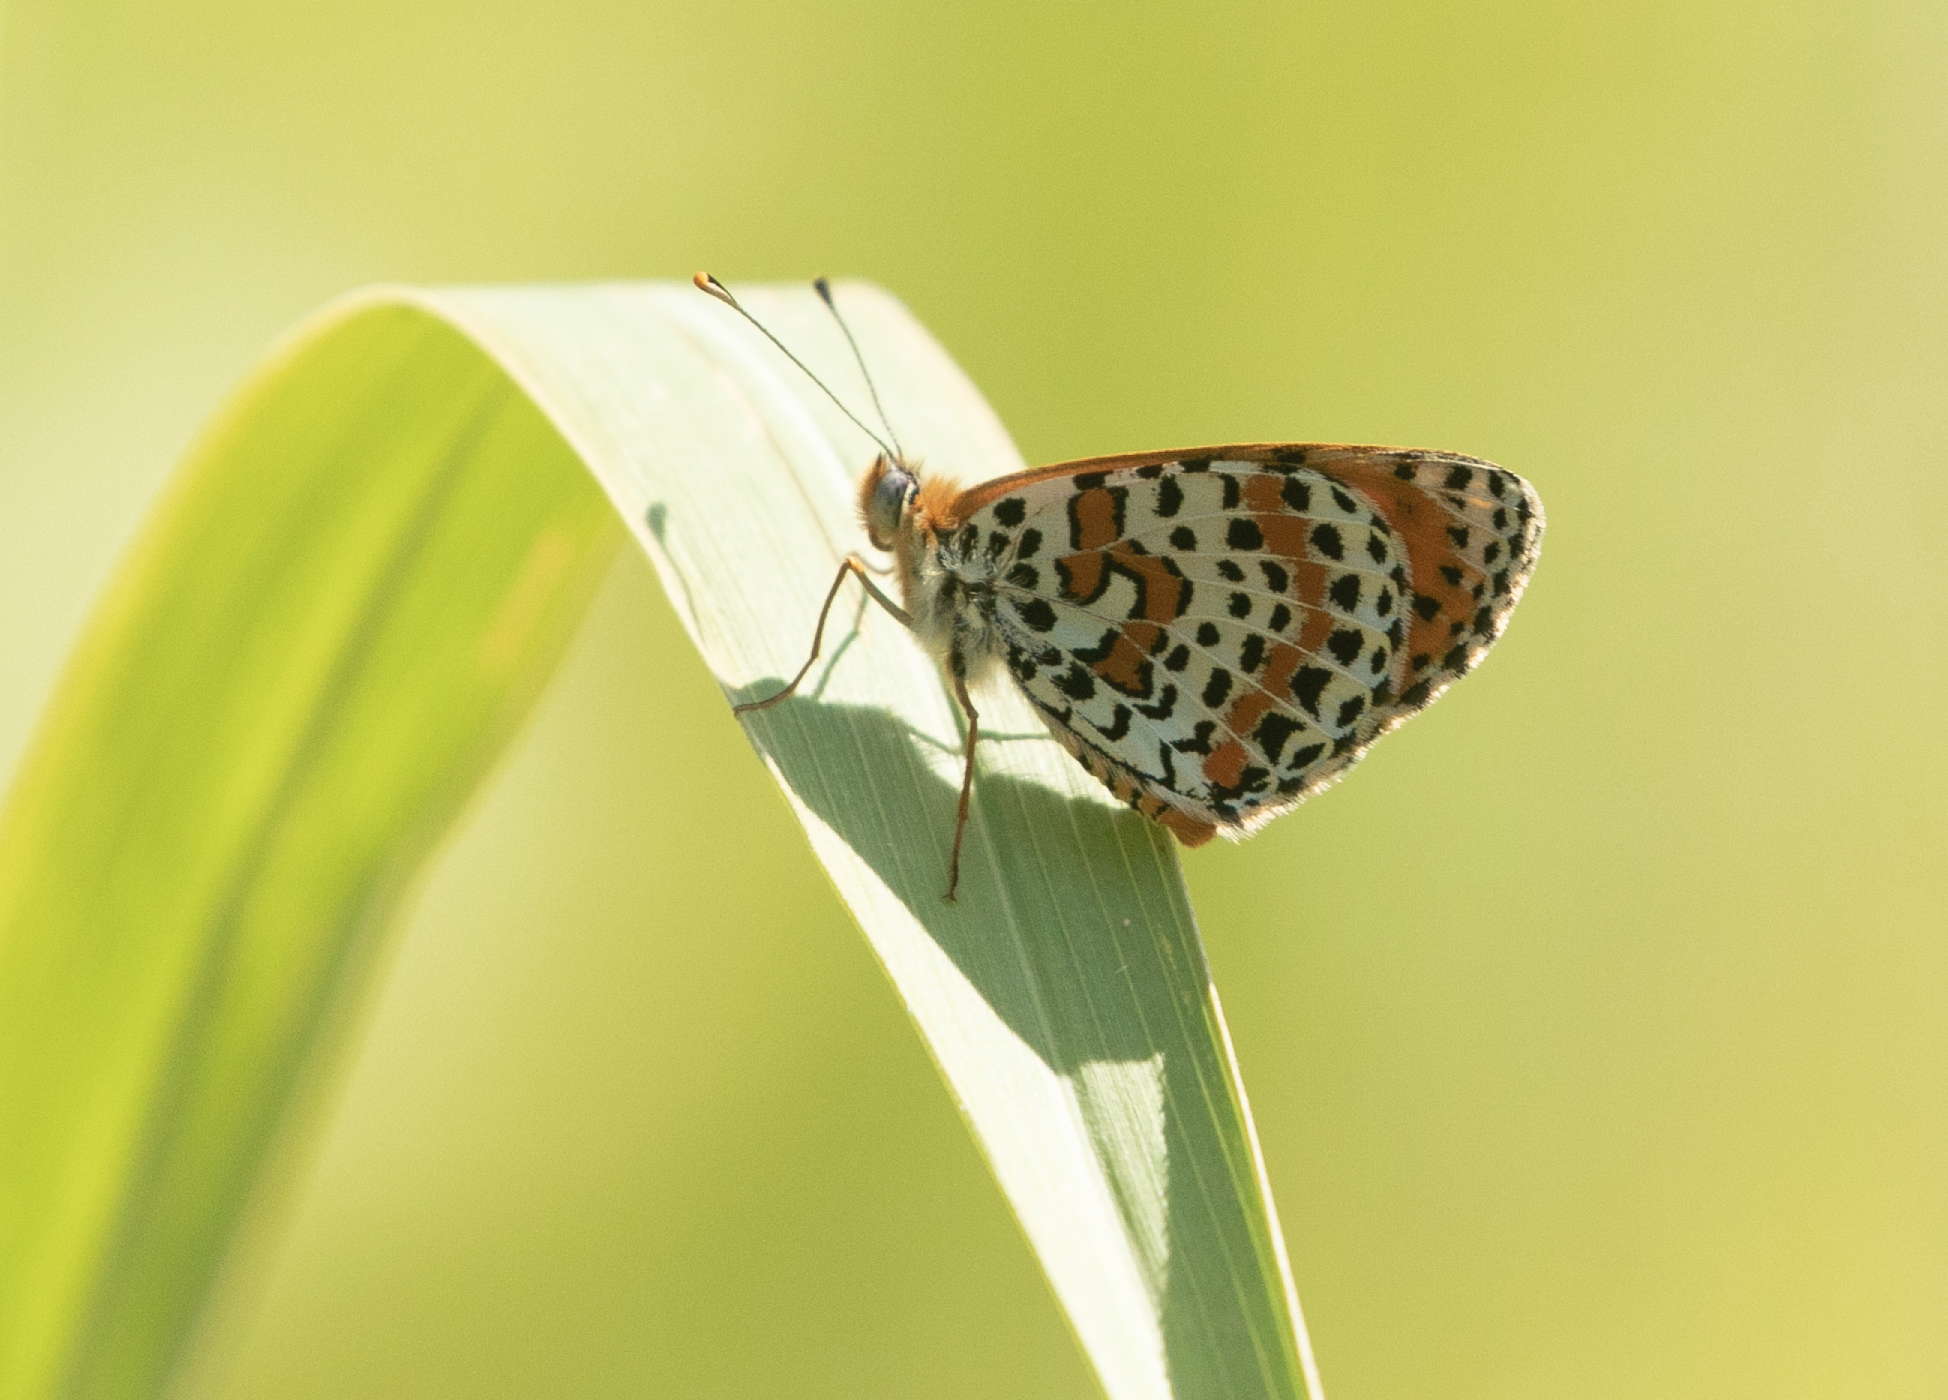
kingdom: Animalia
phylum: Arthropoda
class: Insecta
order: Lepidoptera
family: Nymphalidae
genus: Melitaea
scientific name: Melitaea didyma
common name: Spotted fritillary
